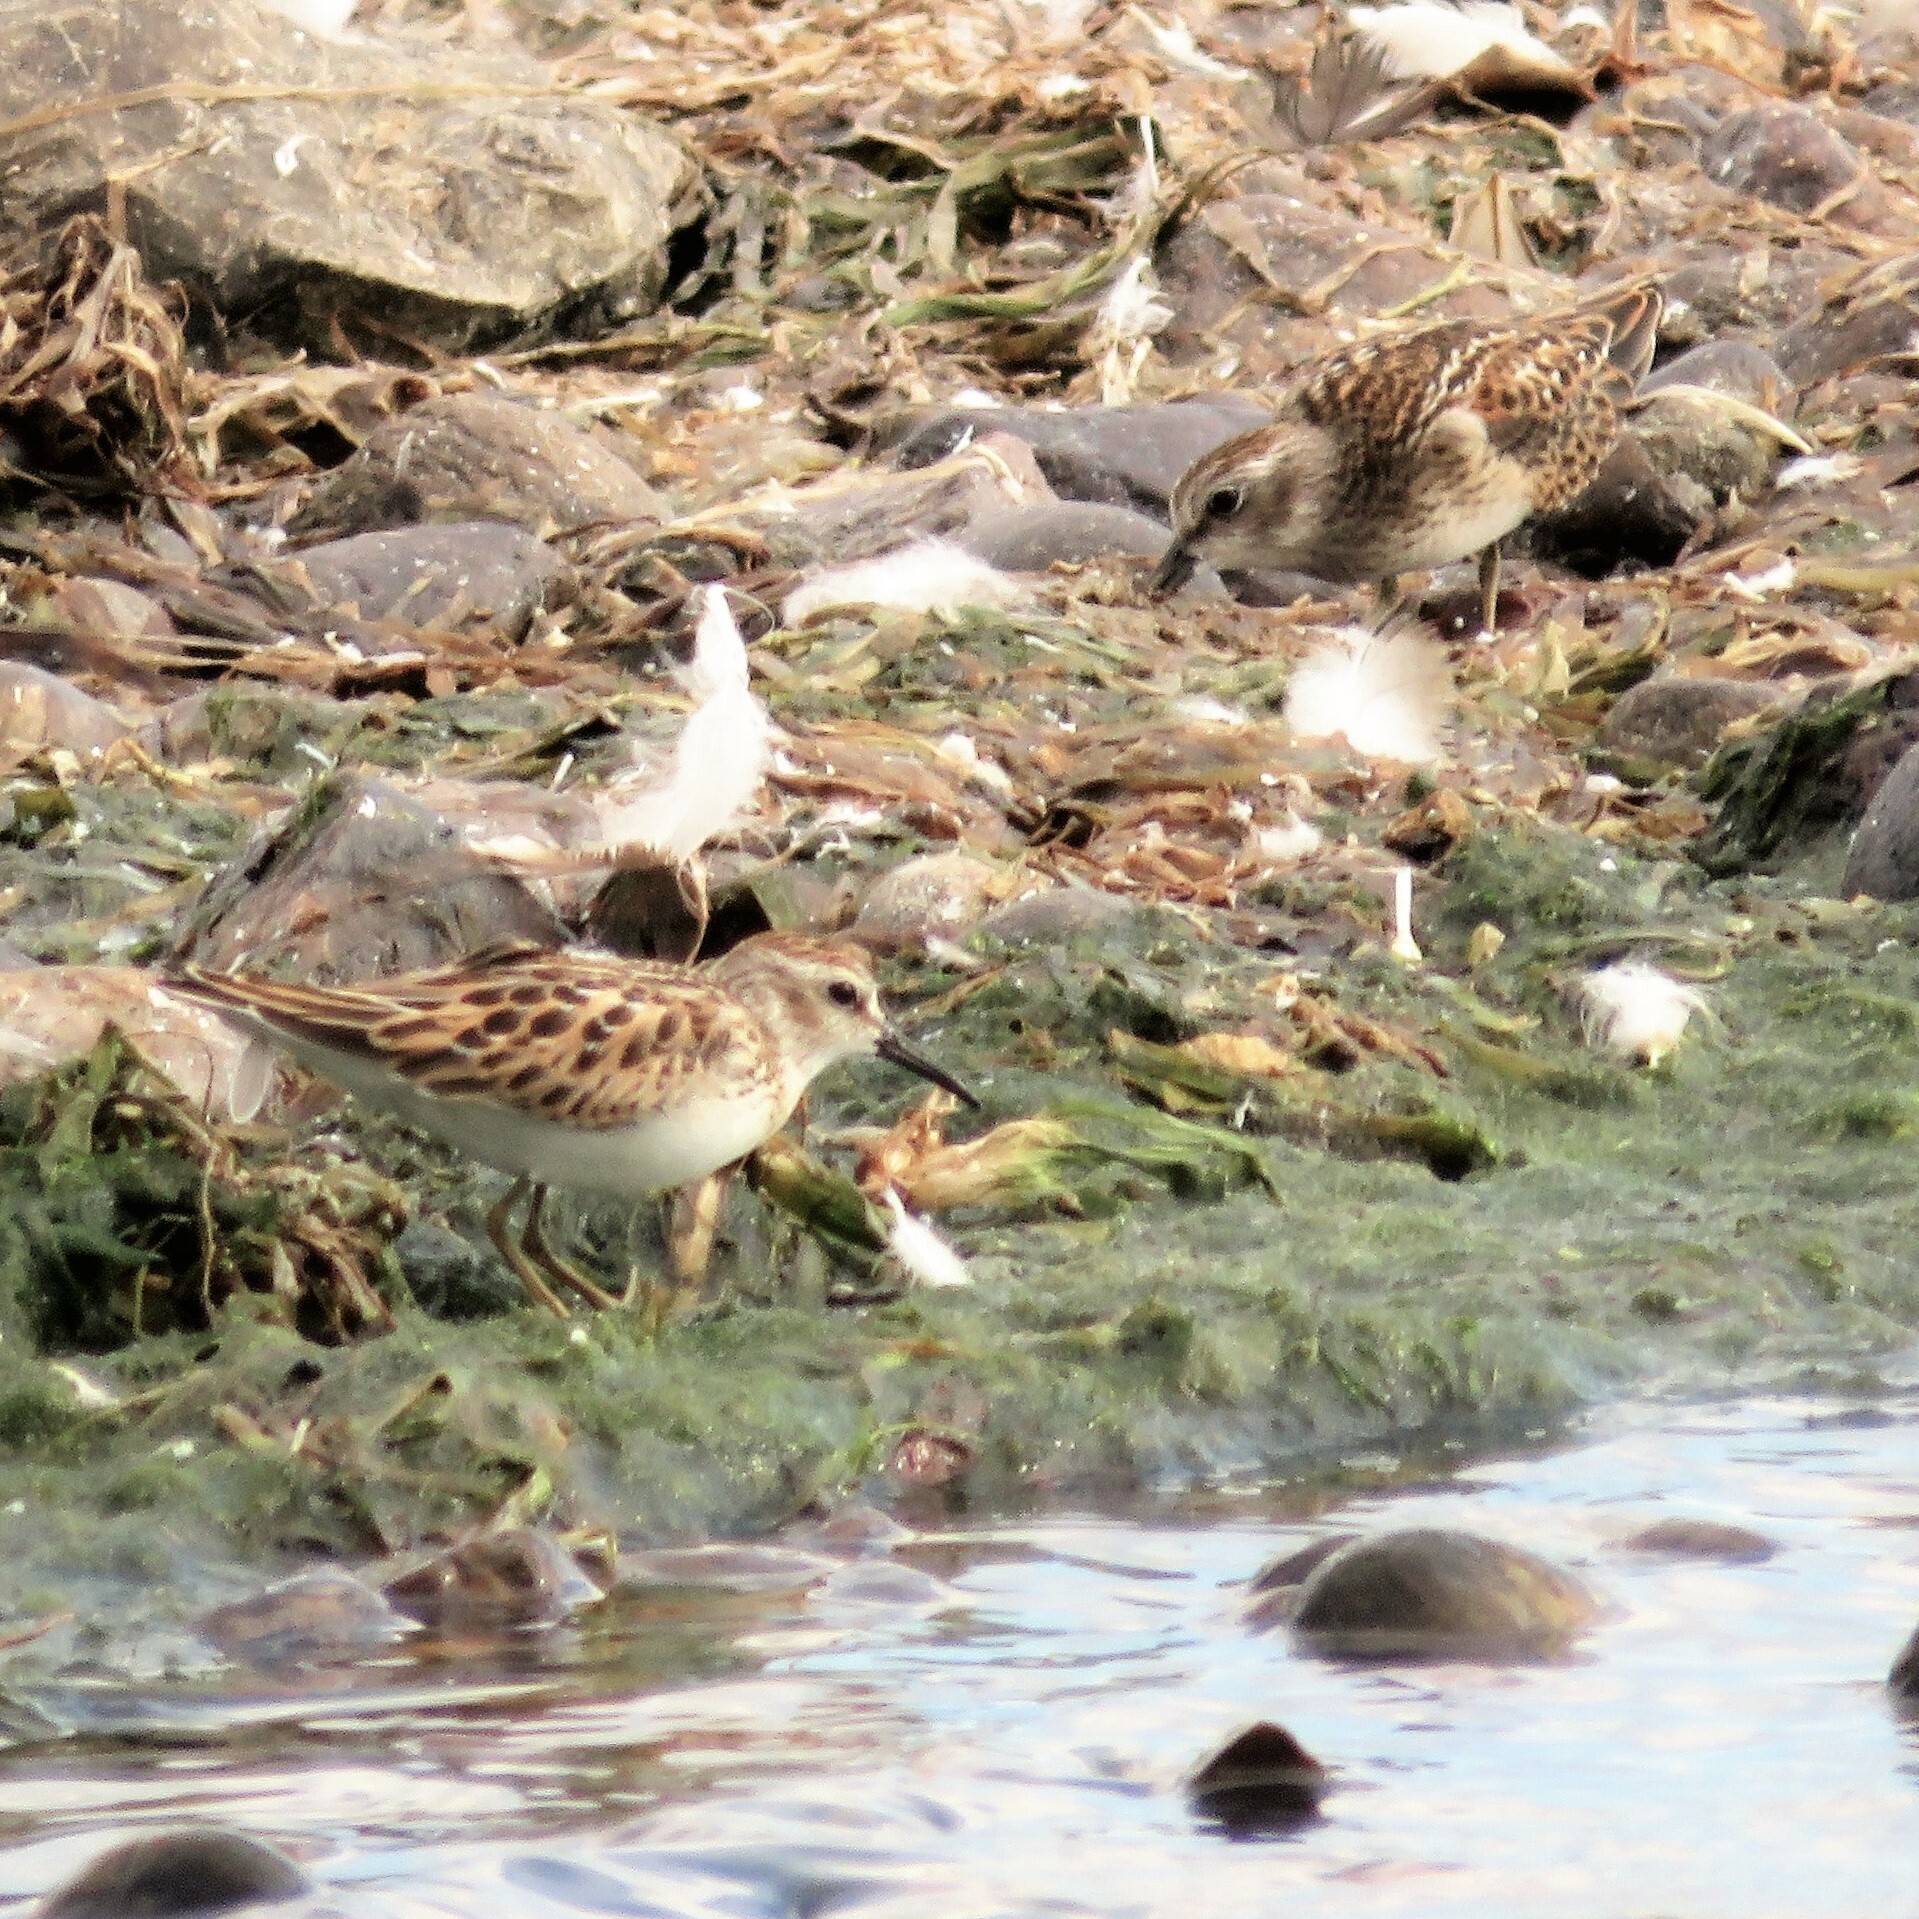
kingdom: Animalia
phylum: Chordata
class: Aves
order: Charadriiformes
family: Scolopacidae
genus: Calidris
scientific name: Calidris minutilla
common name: Least sandpiper
